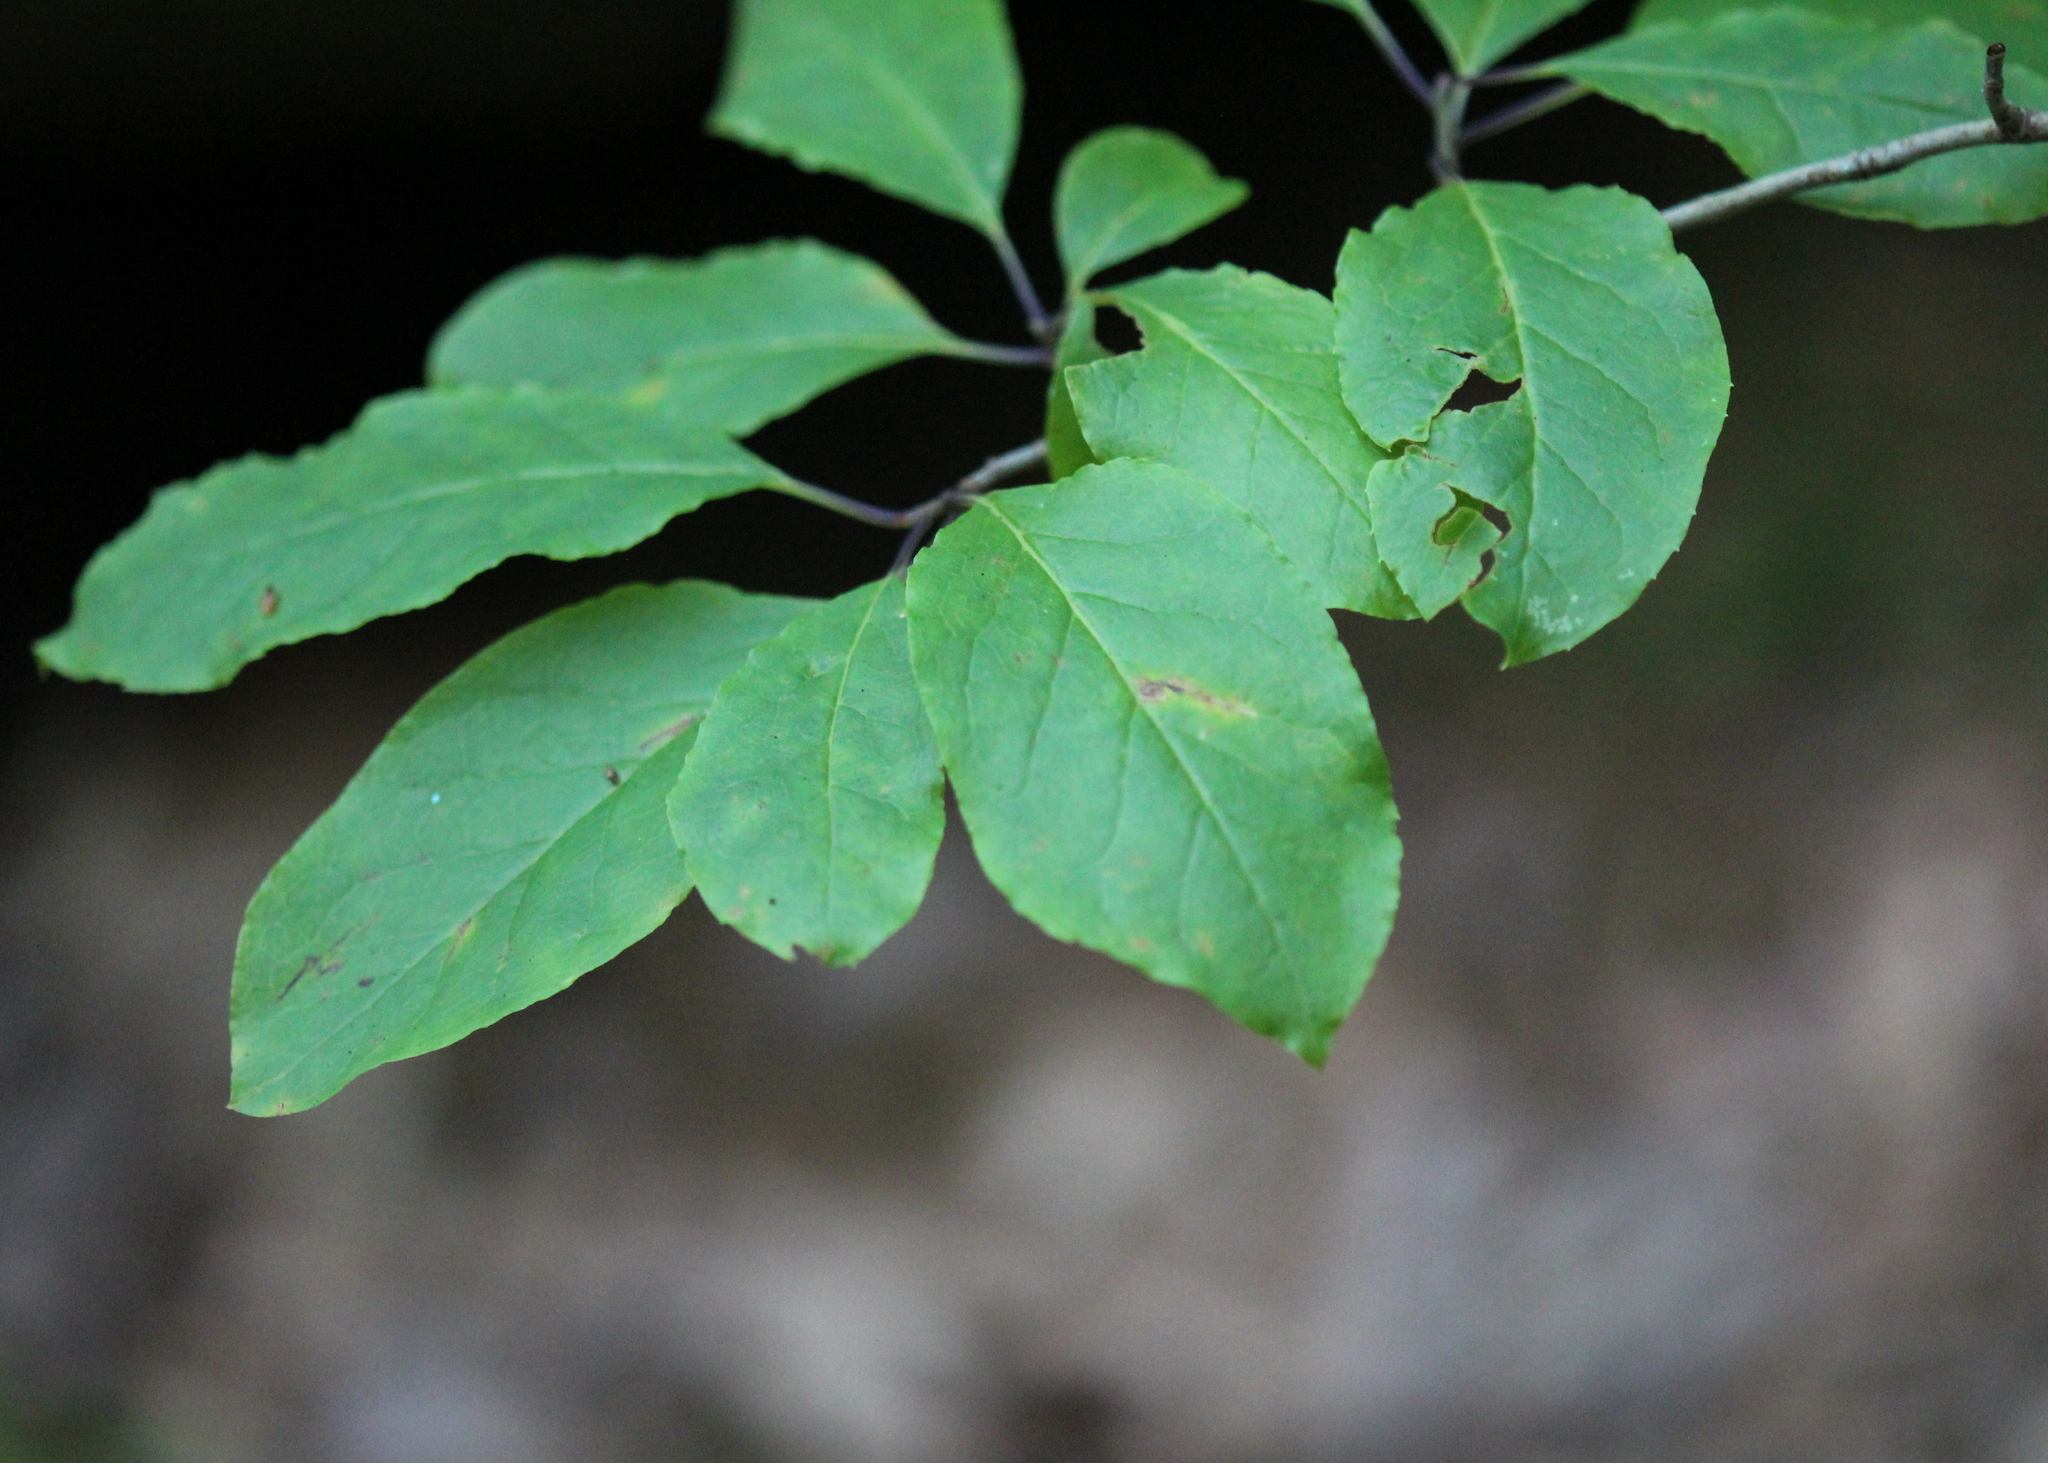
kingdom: Plantae
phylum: Tracheophyta
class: Magnoliopsida
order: Aquifoliales
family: Aquifoliaceae
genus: Ilex
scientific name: Ilex mucronata
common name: Catberry
